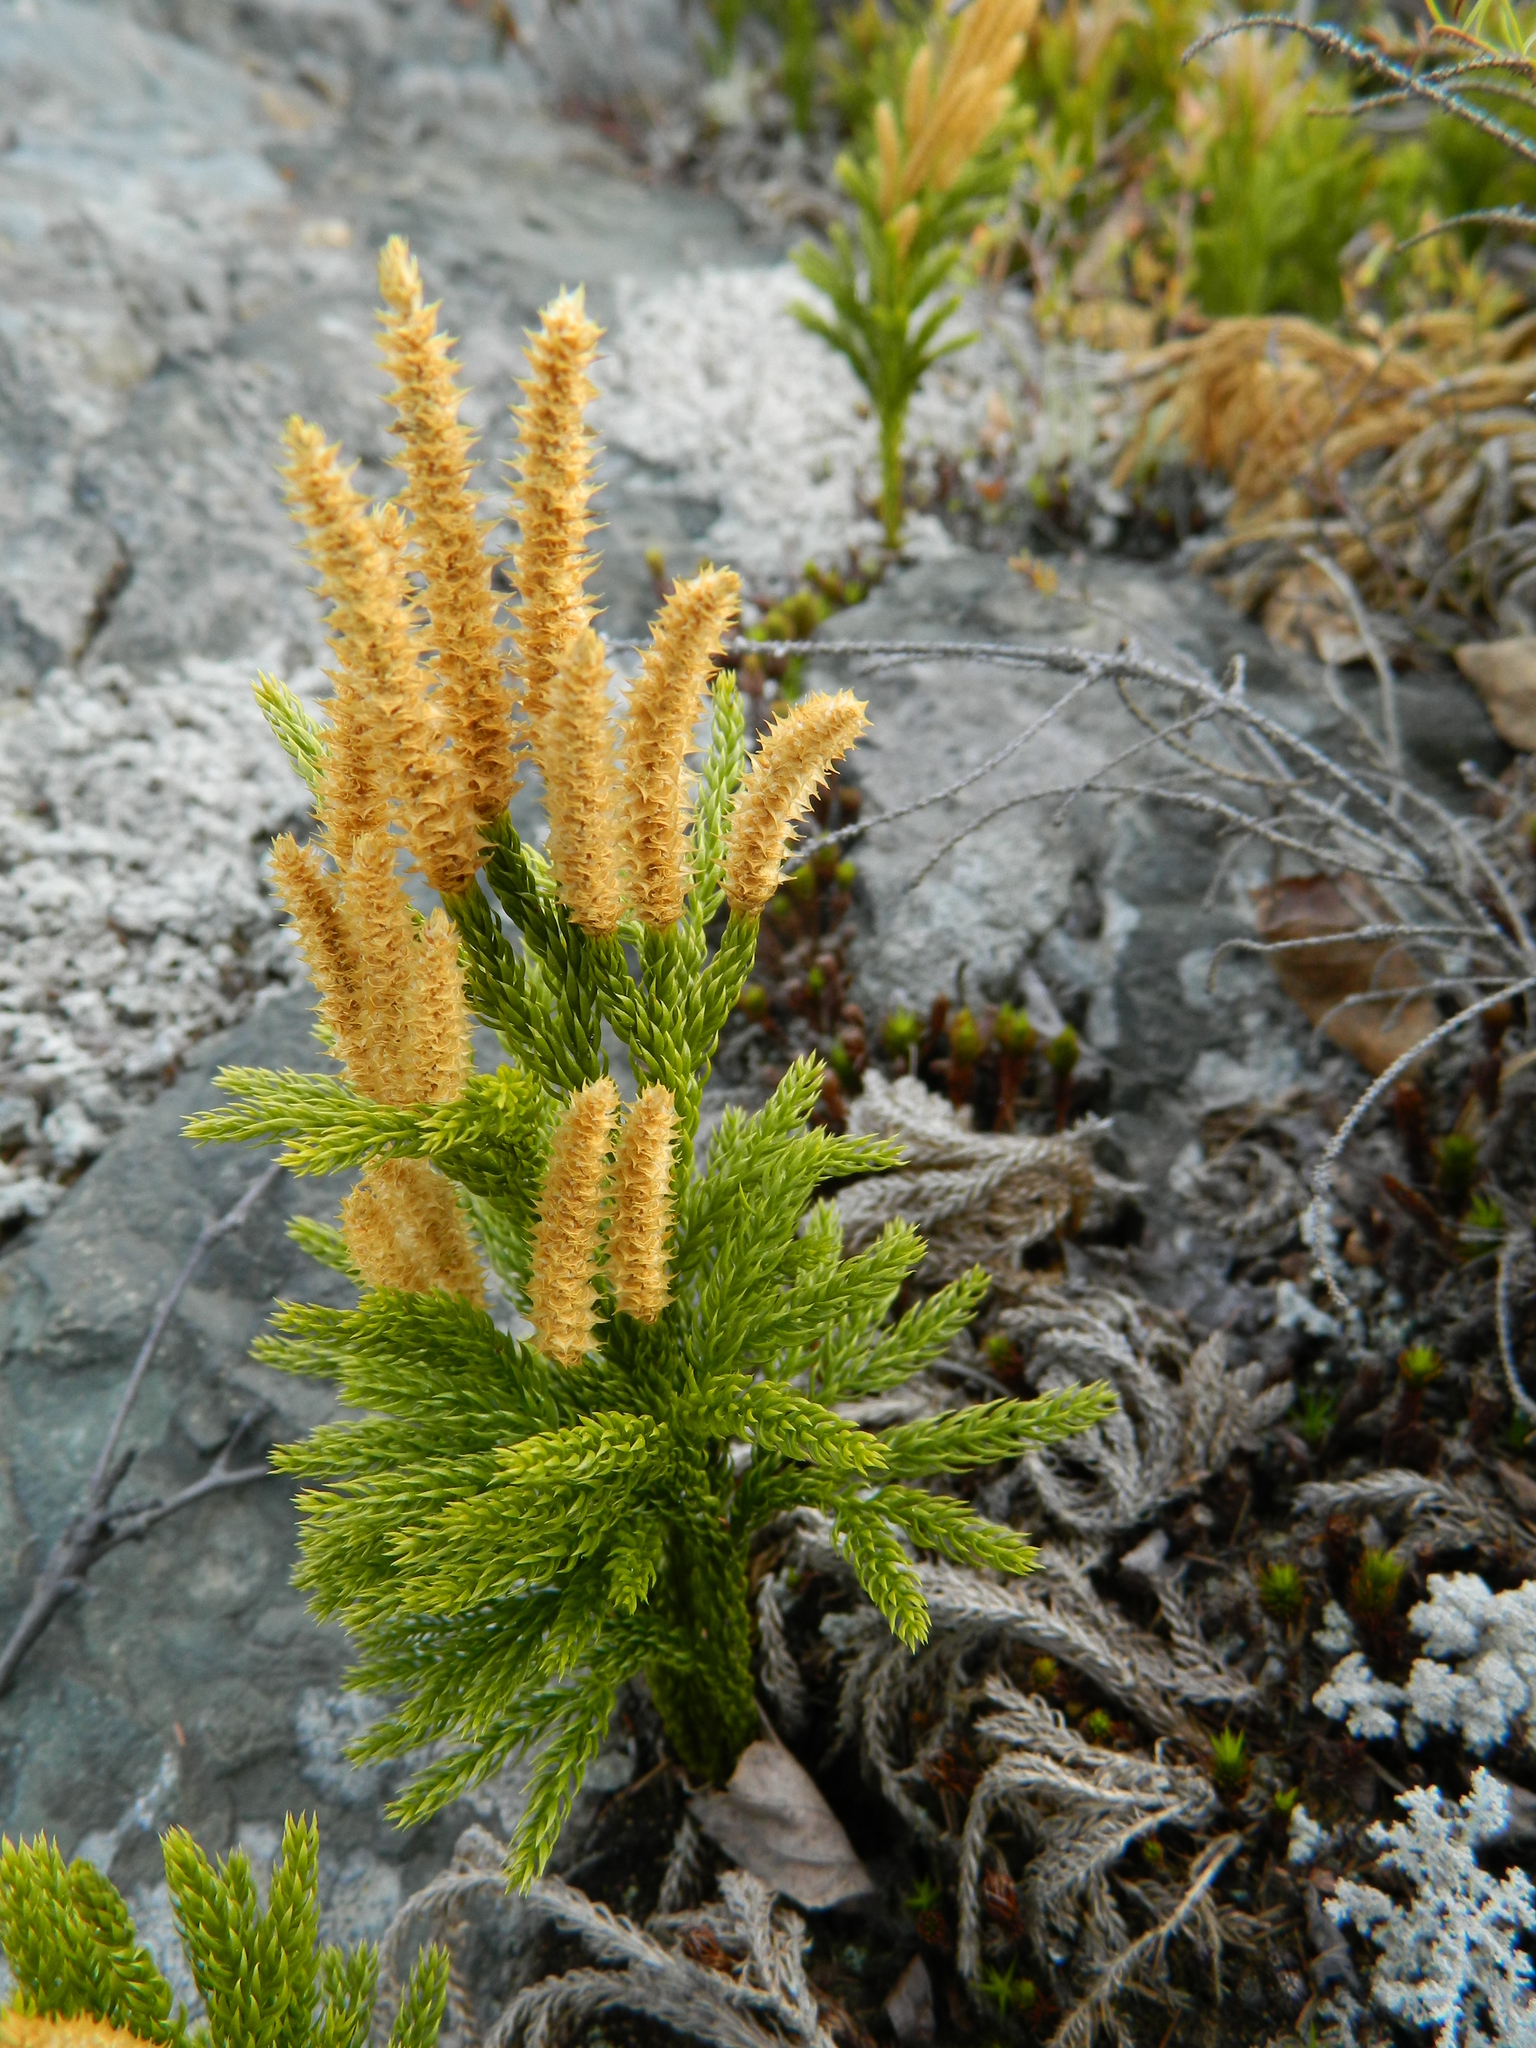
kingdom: Plantae
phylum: Tracheophyta
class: Lycopodiopsida
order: Lycopodiales
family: Lycopodiaceae
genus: Dendrolycopodium
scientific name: Dendrolycopodium hickeyi
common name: Hickey's clubmoss
